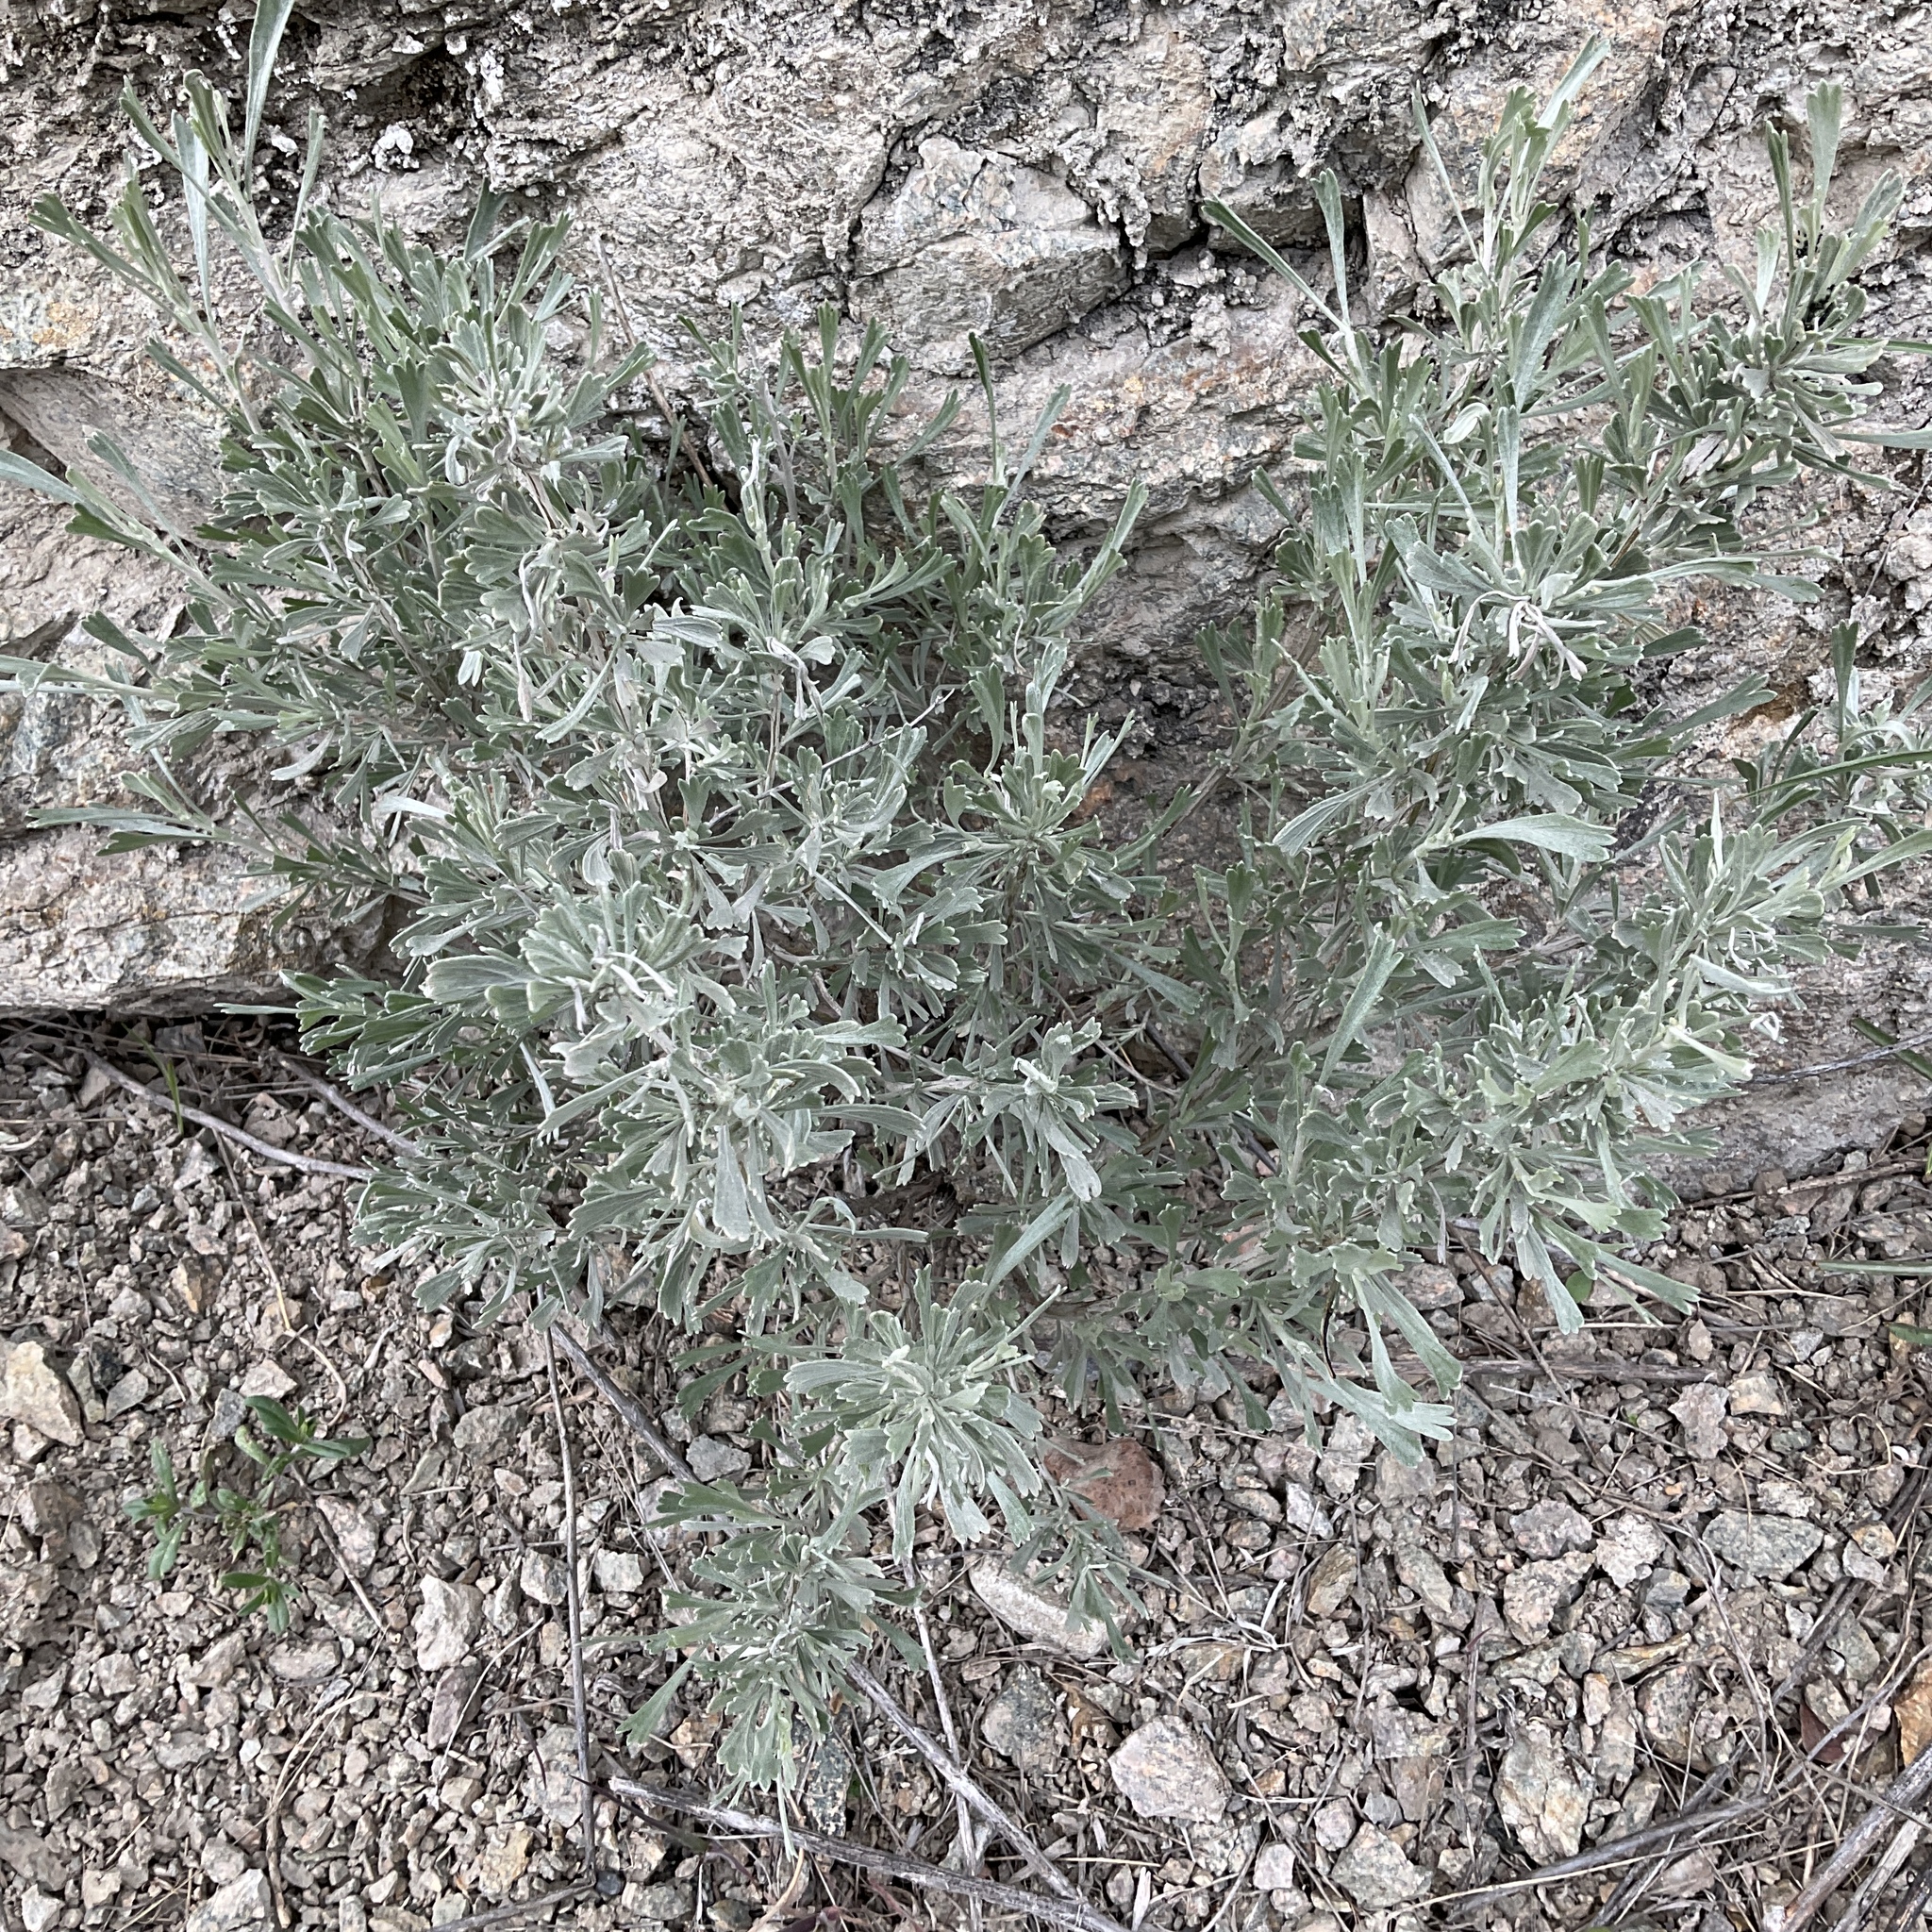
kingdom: Plantae
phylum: Tracheophyta
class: Magnoliopsida
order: Asterales
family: Asteraceae
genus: Artemisia
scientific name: Artemisia tridentata
